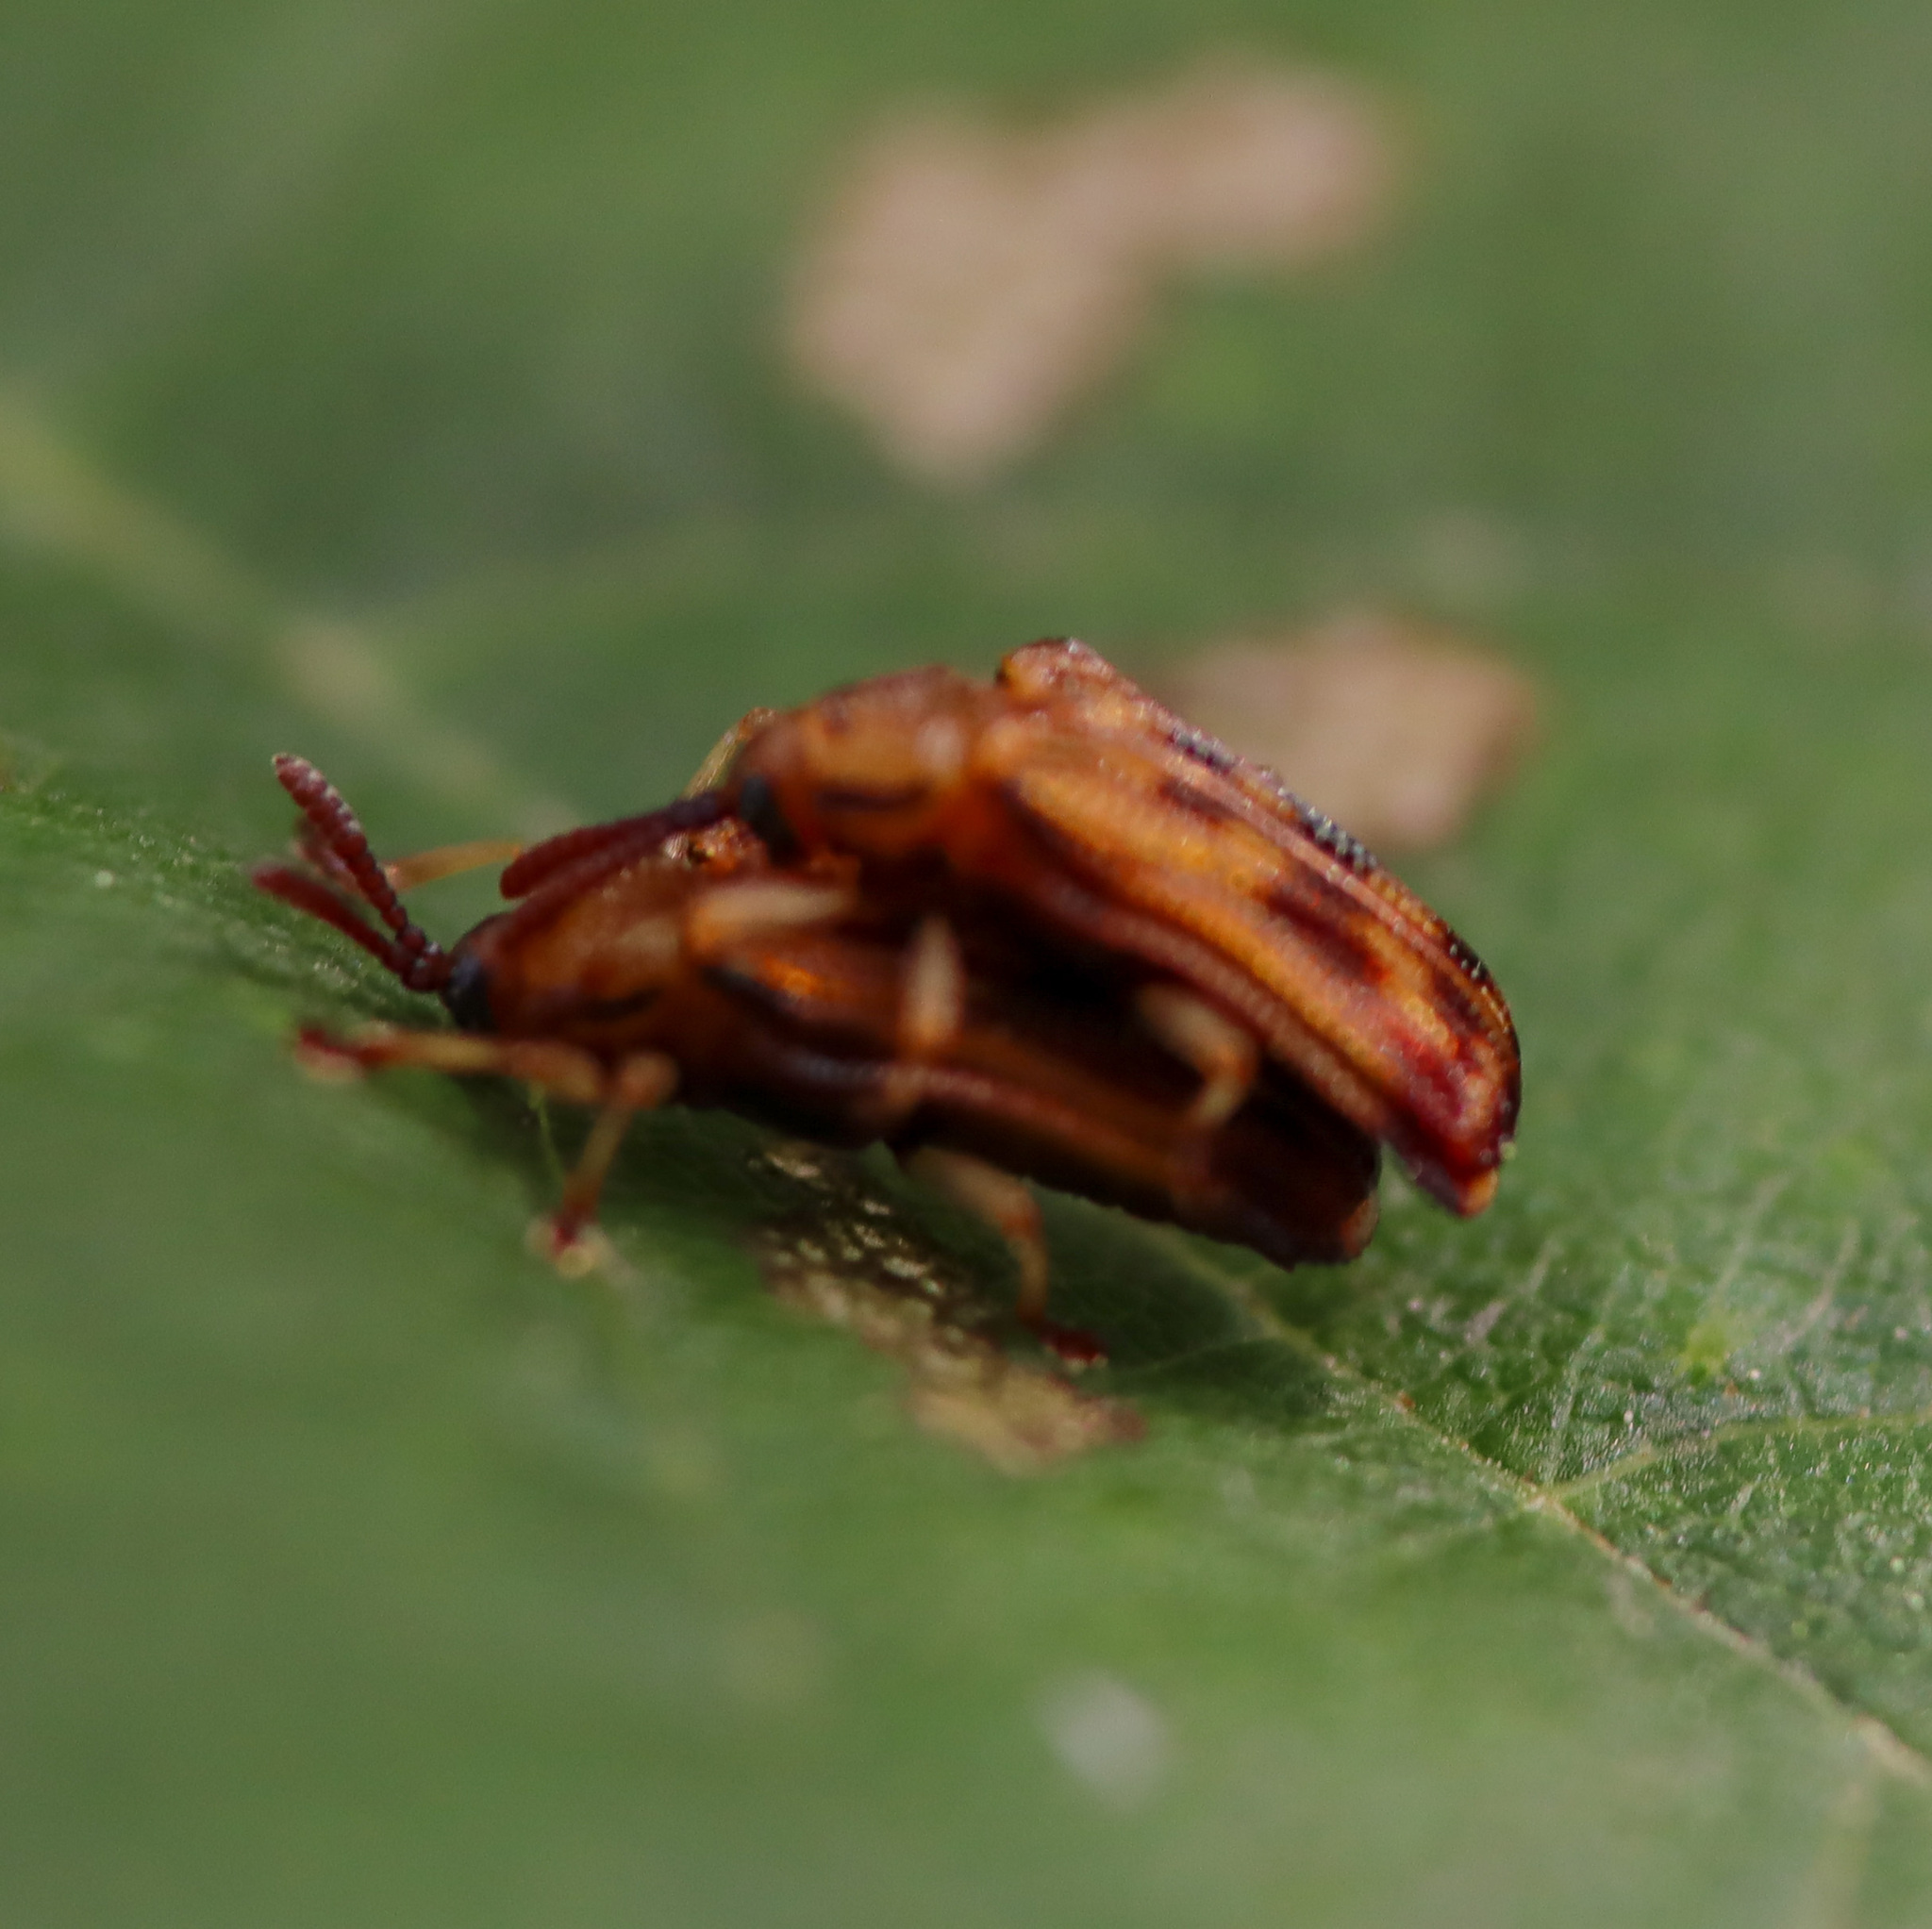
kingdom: Animalia
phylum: Arthropoda
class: Insecta
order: Coleoptera
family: Chrysomelidae
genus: Baliosus
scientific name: Baliosus nervosus
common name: Basswood leaf miner
